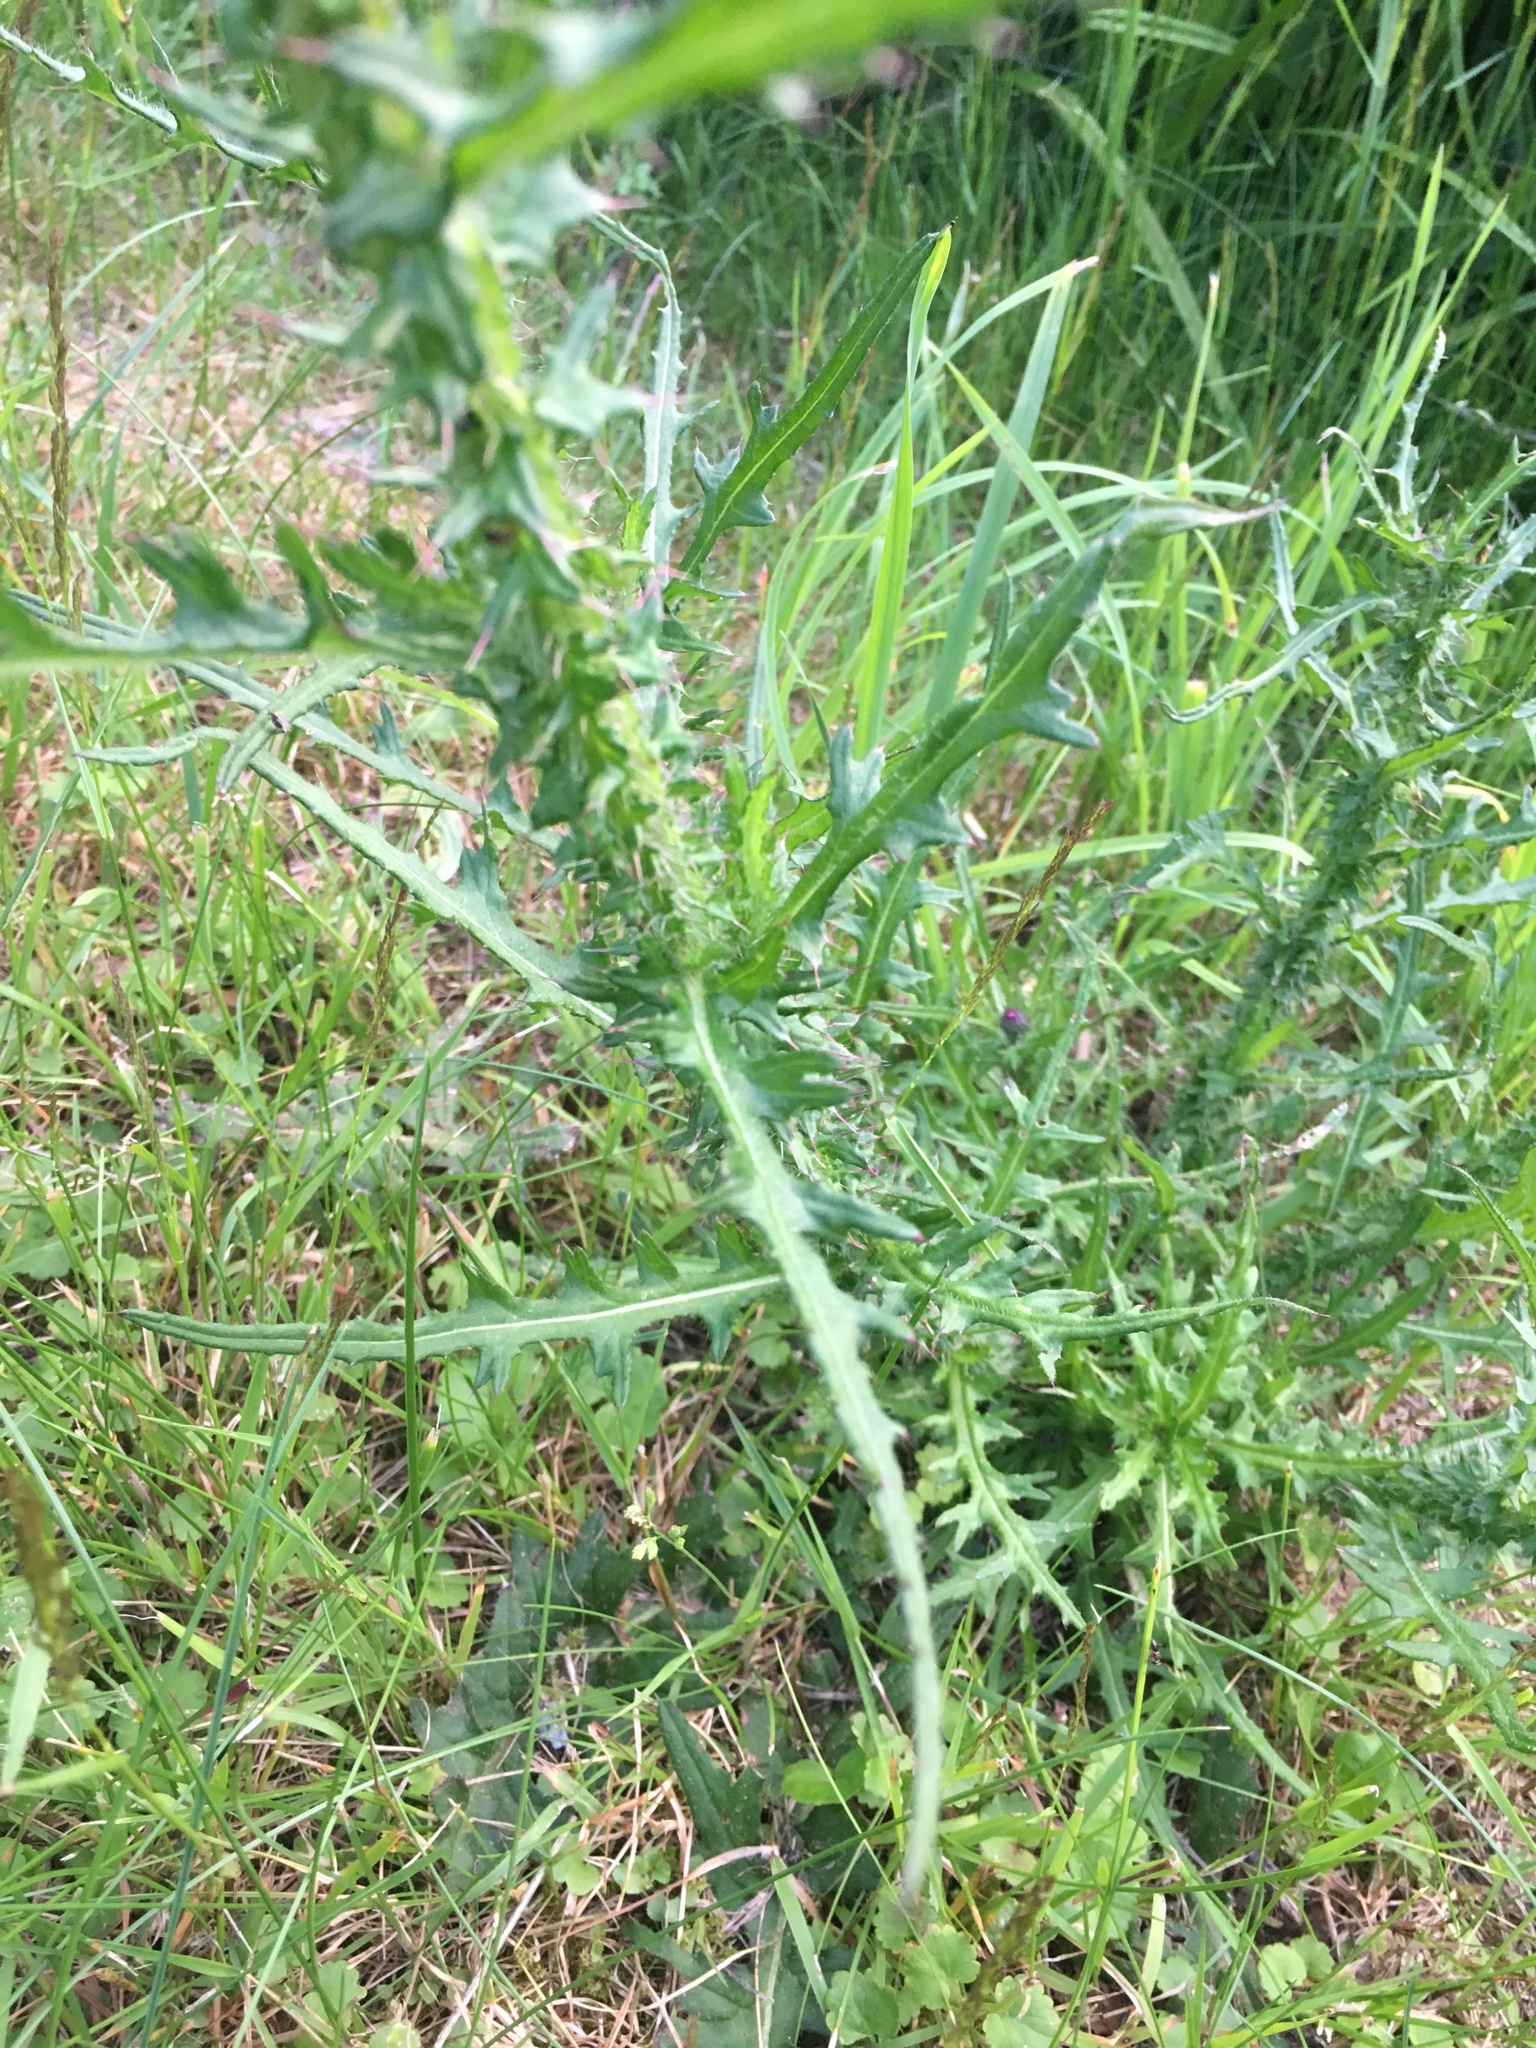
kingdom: Plantae
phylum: Tracheophyta
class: Magnoliopsida
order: Asterales
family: Asteraceae
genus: Cirsium
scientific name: Cirsium palustre
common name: Marsh thistle
